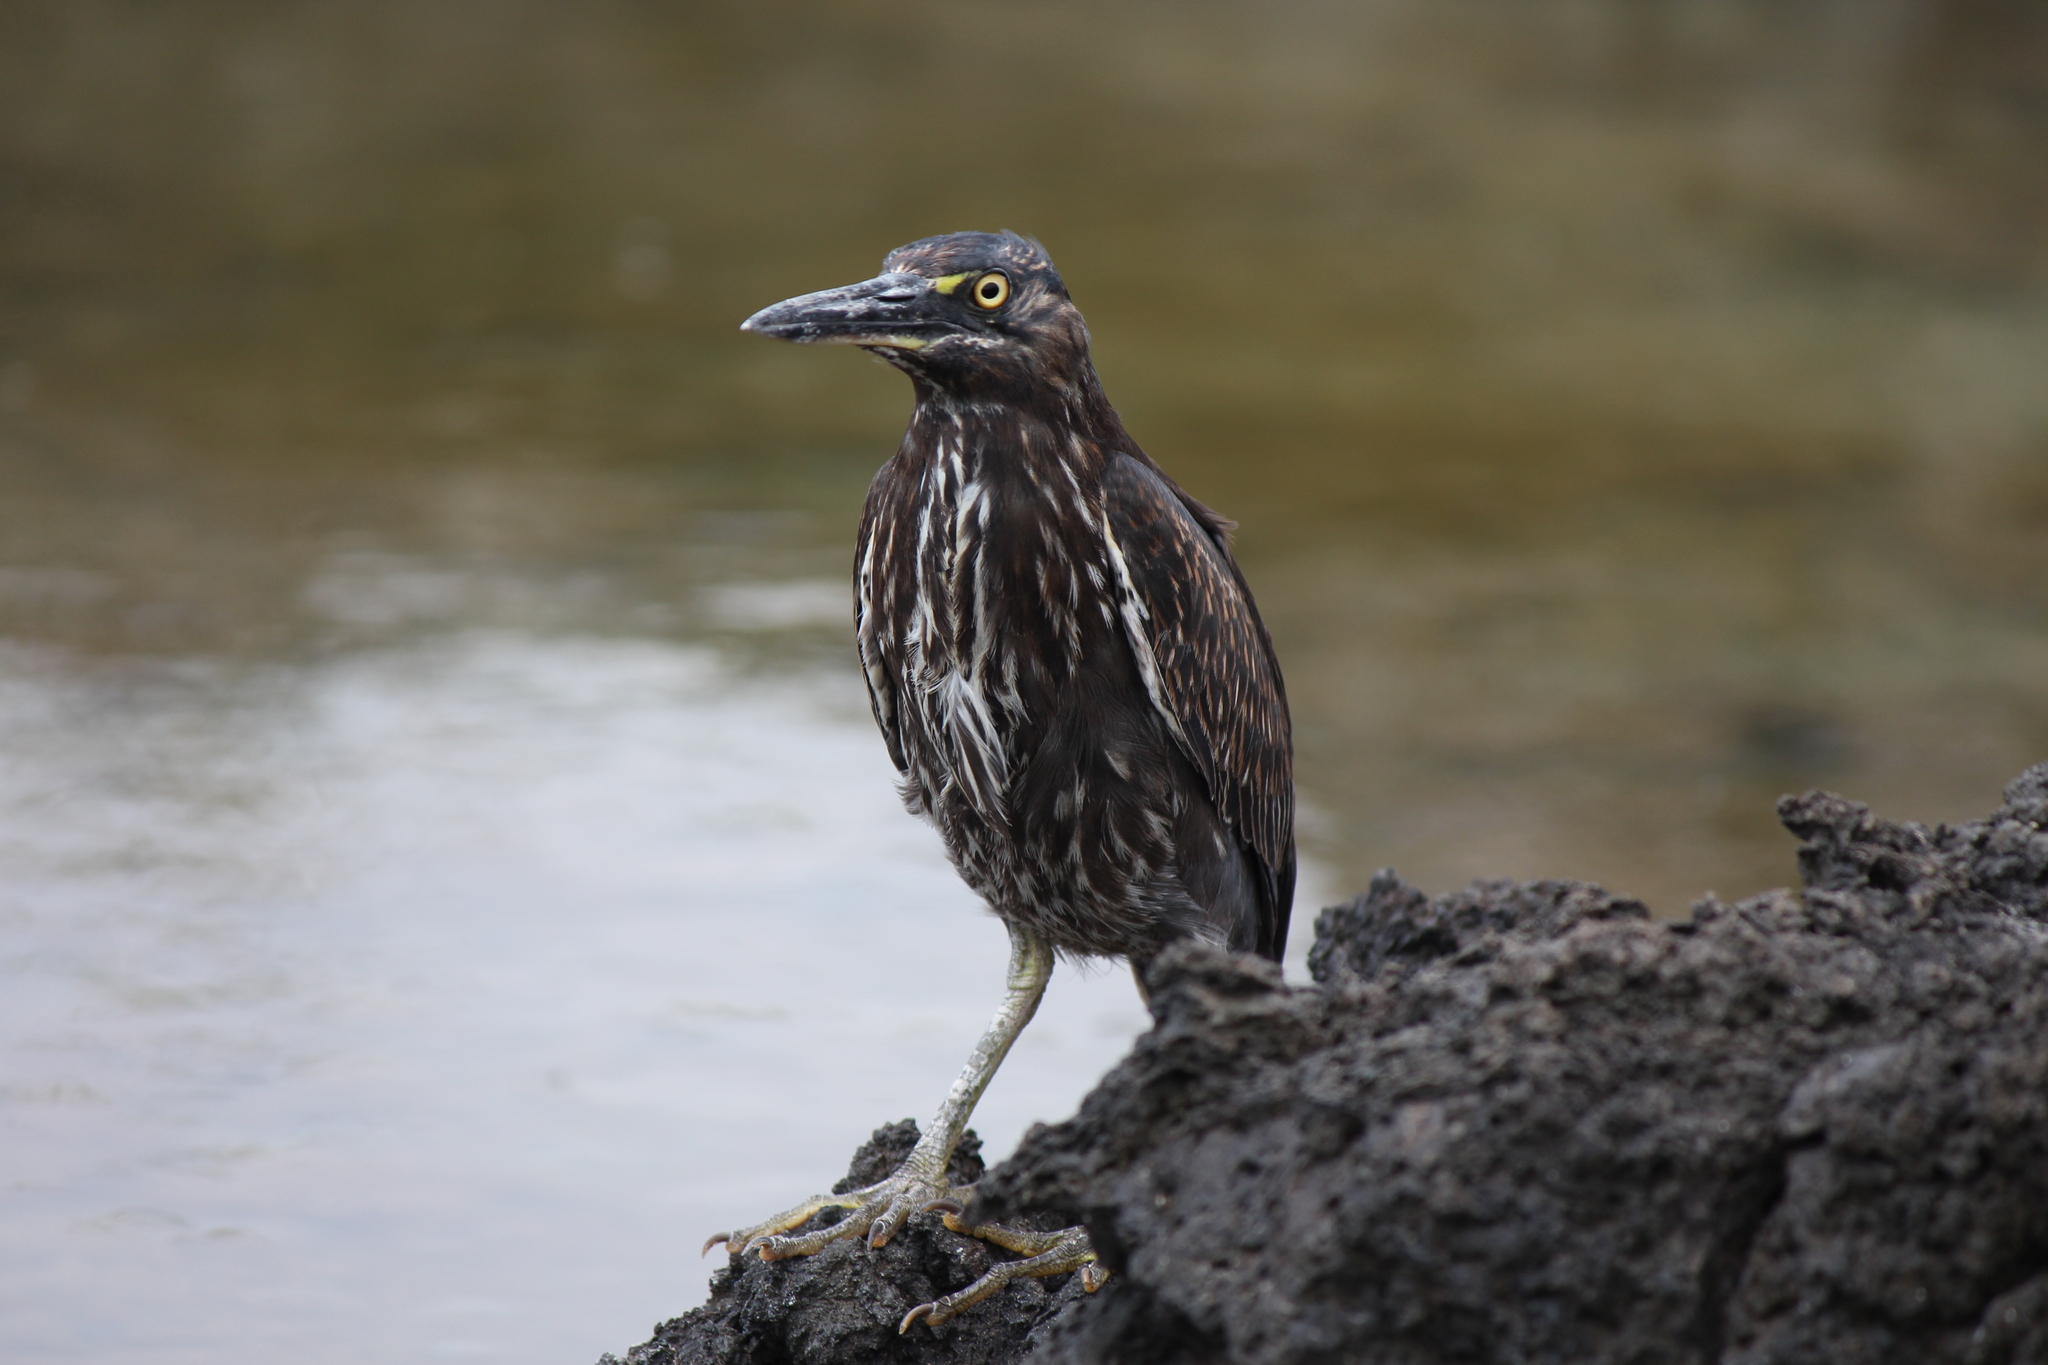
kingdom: Animalia
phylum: Chordata
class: Aves
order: Pelecaniformes
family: Ardeidae
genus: Butorides
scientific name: Butorides striata
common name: Striated heron
